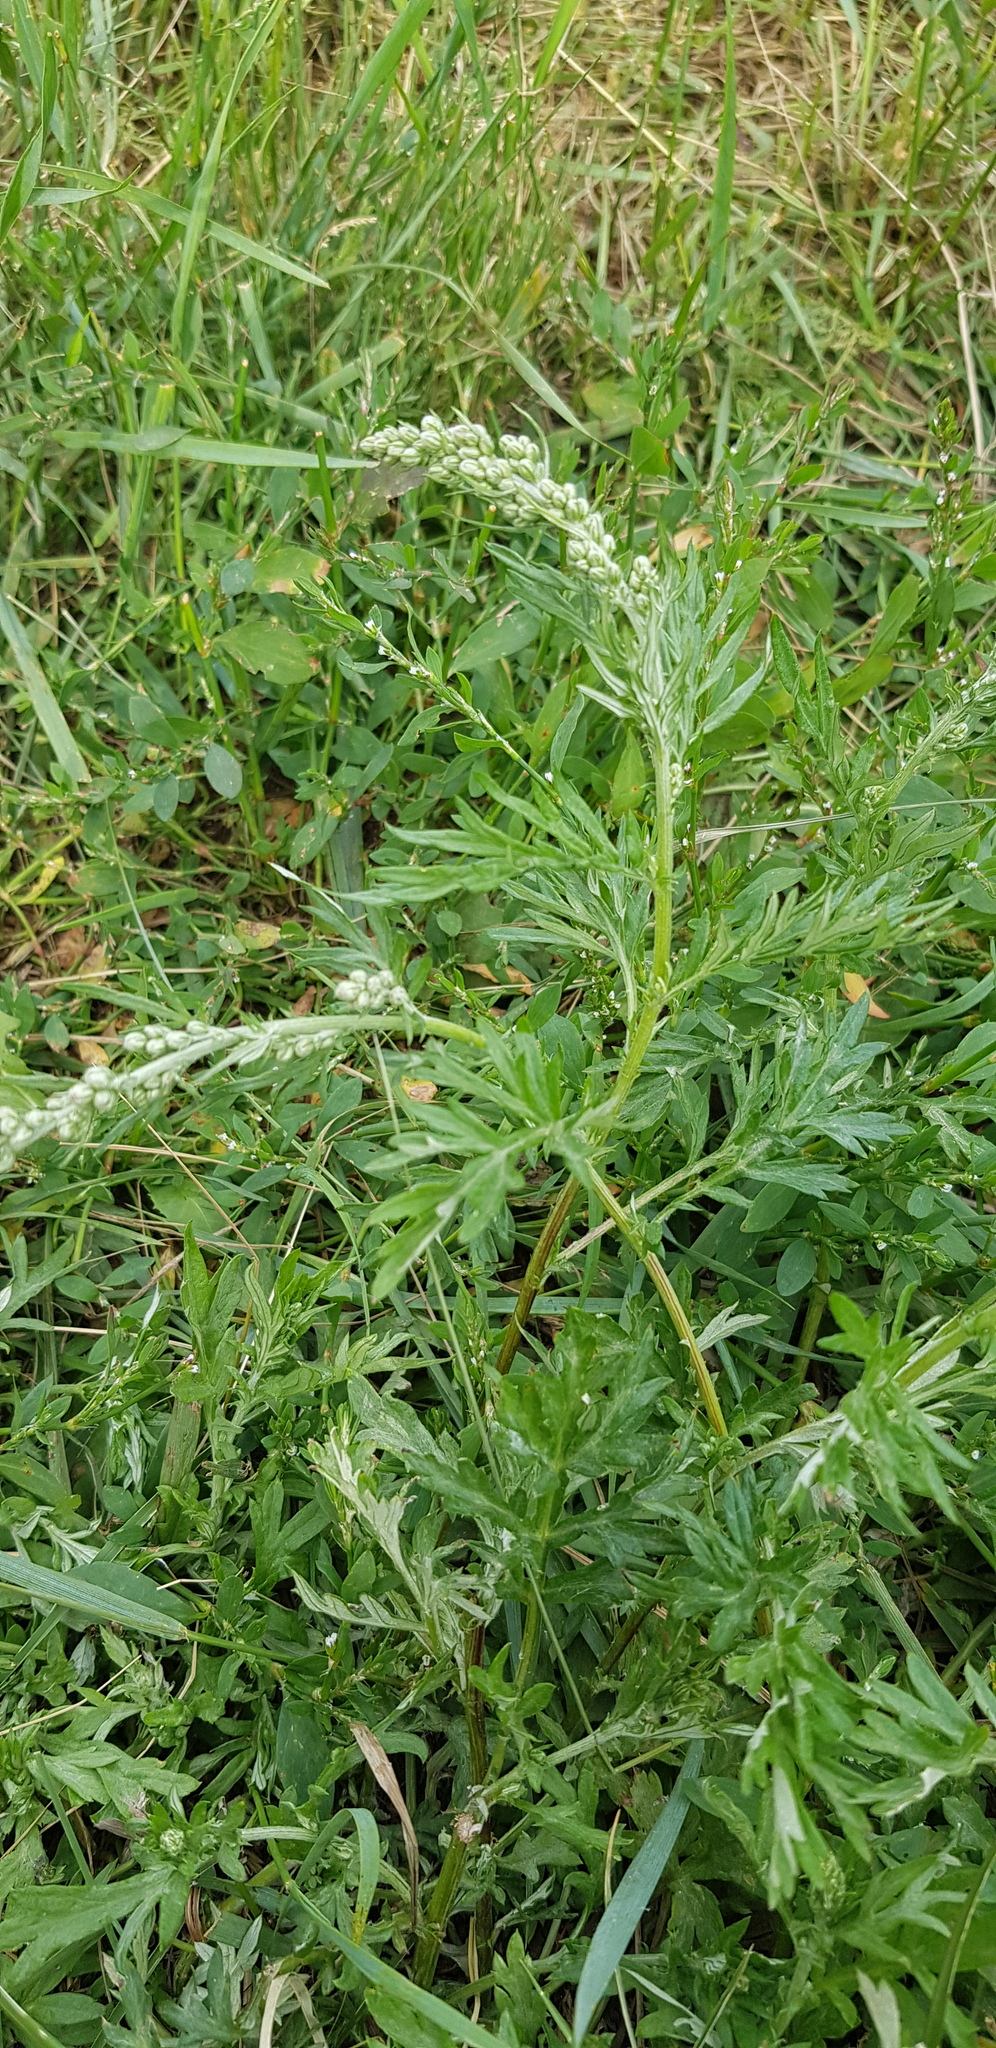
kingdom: Plantae
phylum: Tracheophyta
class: Magnoliopsida
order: Asterales
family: Asteraceae
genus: Artemisia
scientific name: Artemisia sieversiana
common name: Sieversian wormwood
